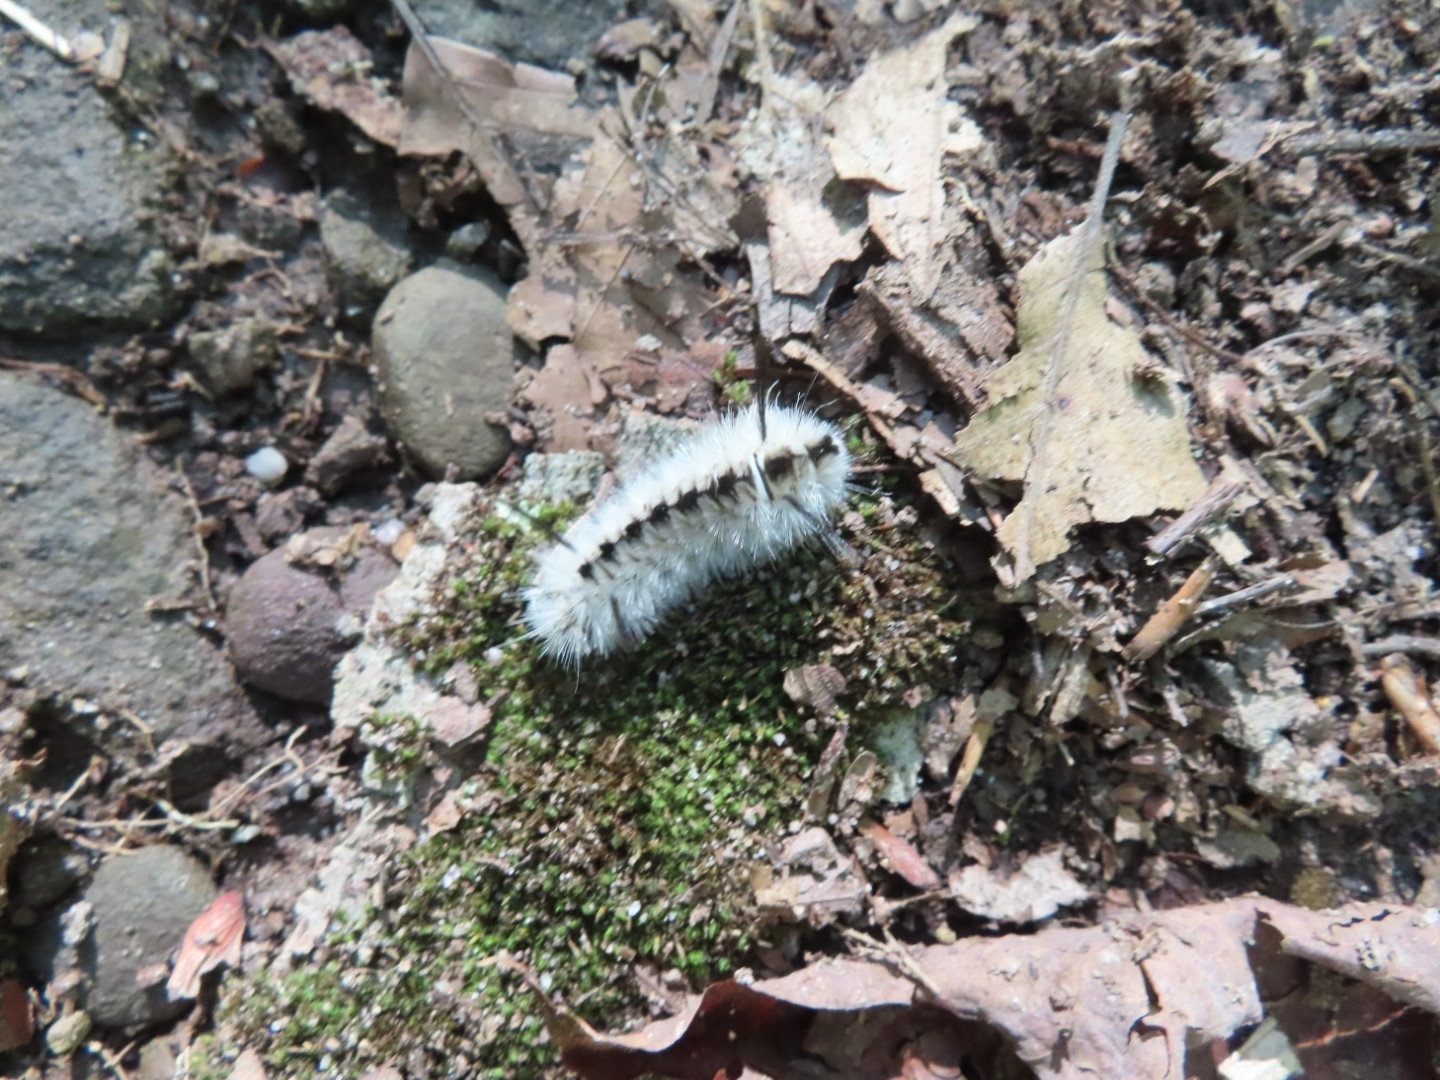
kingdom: Animalia
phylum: Arthropoda
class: Insecta
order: Lepidoptera
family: Erebidae
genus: Lophocampa
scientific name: Lophocampa caryae
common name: Hickory tussock moth
